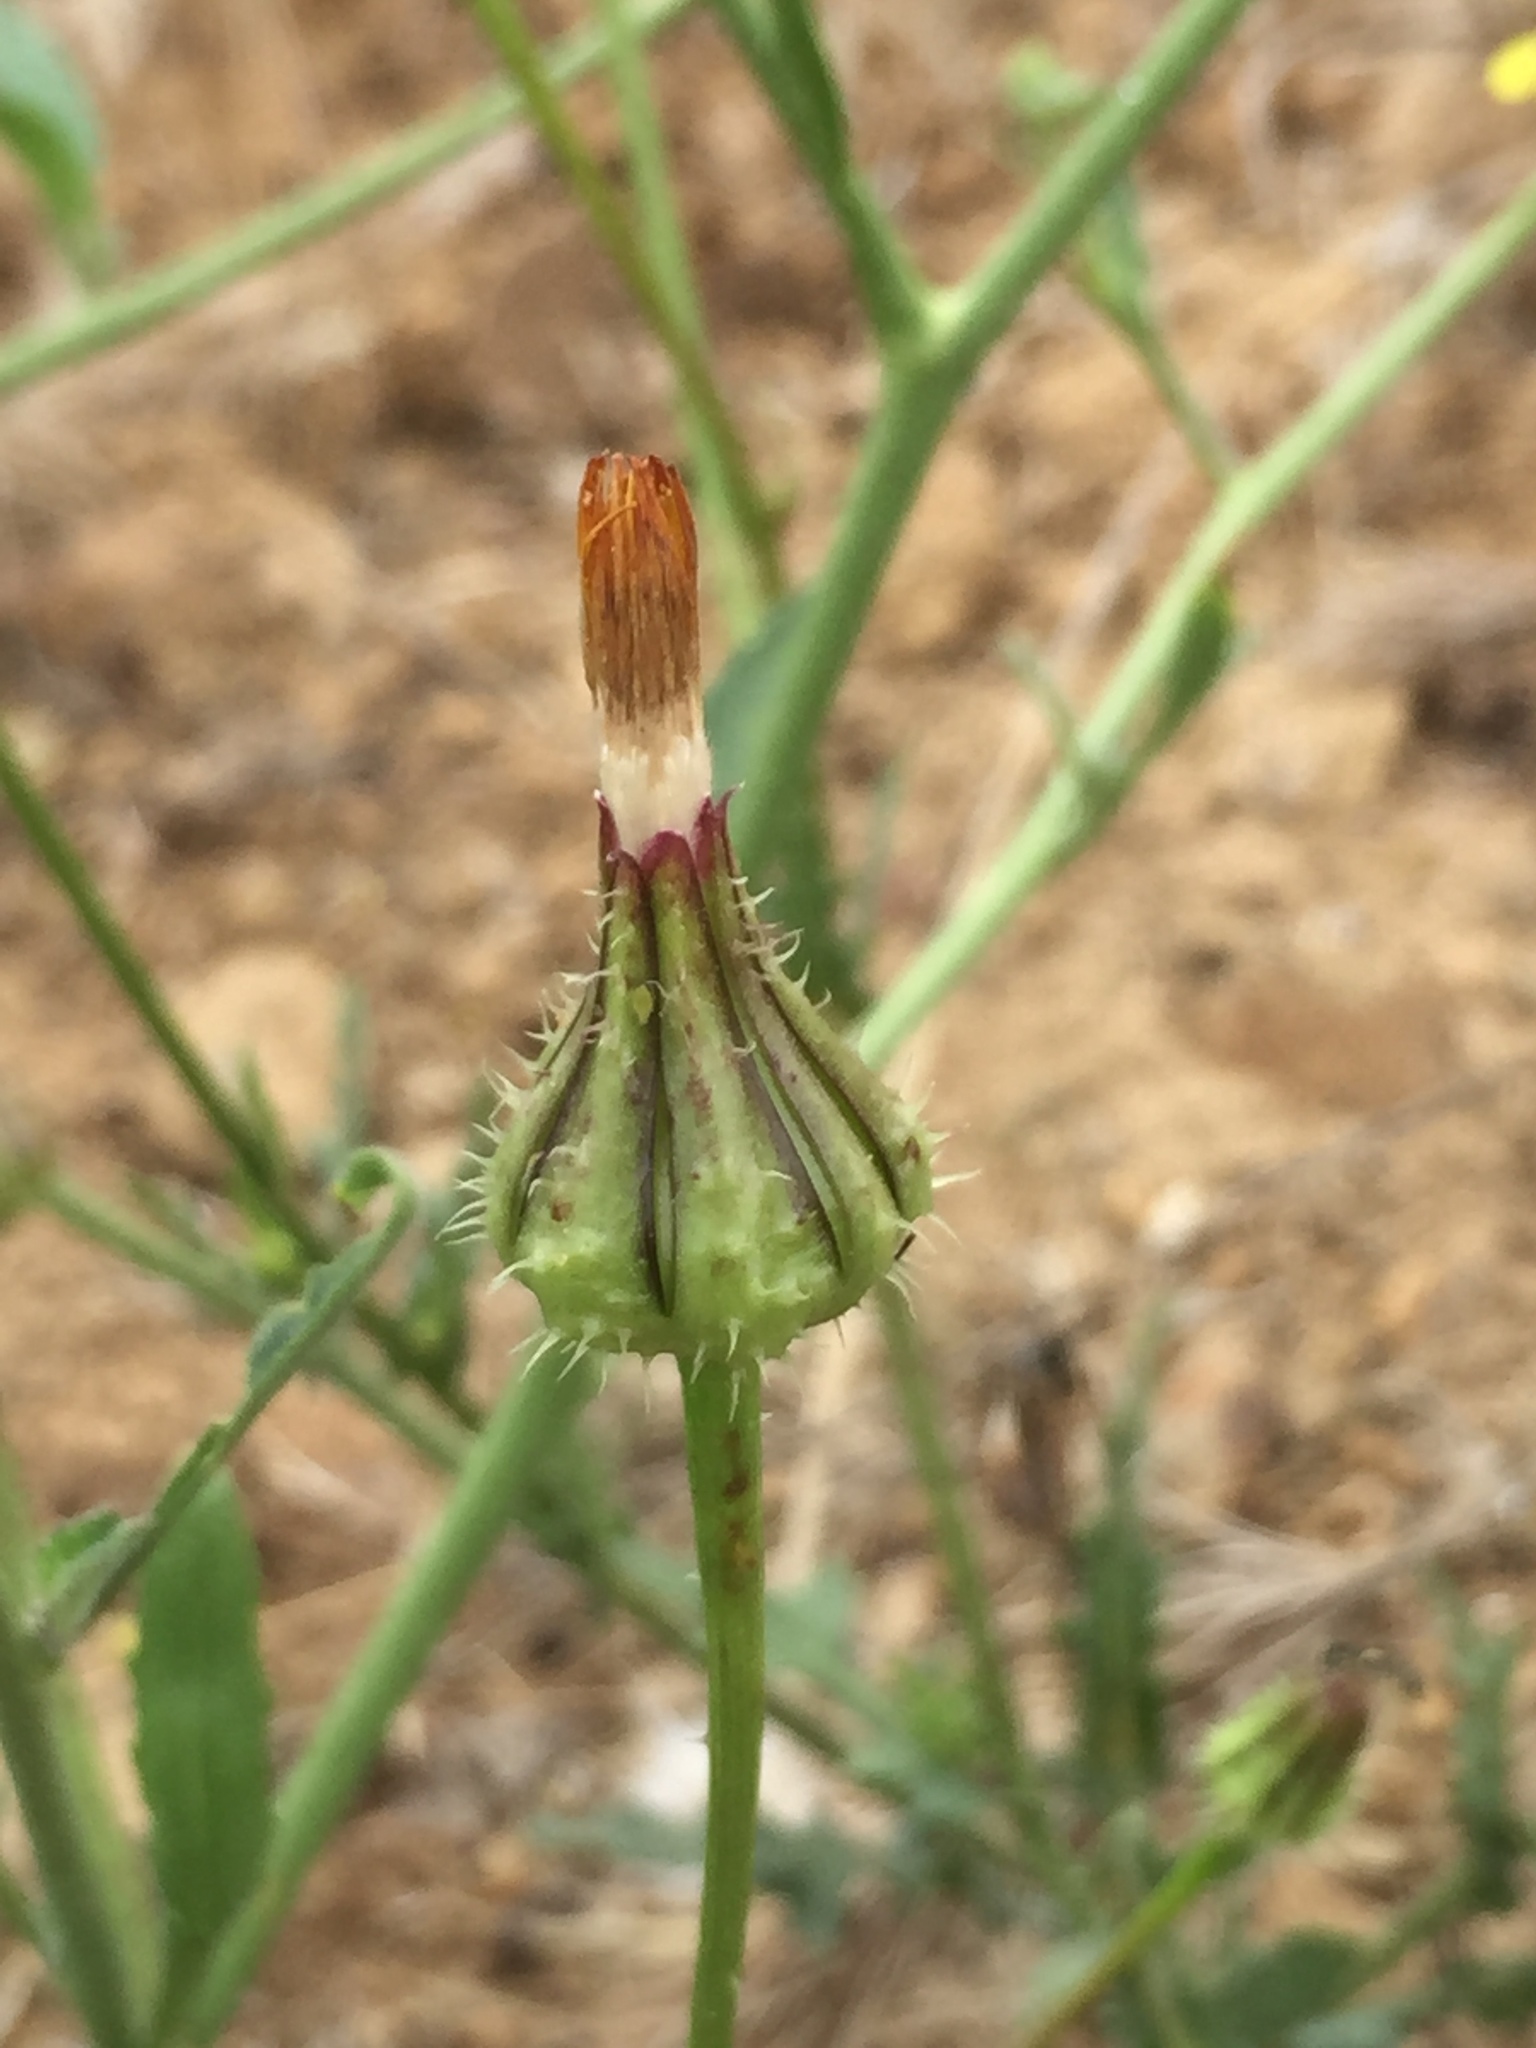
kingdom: Plantae
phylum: Tracheophyta
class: Magnoliopsida
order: Asterales
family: Asteraceae
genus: Urospermum
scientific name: Urospermum picroides
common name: False hawkbit
